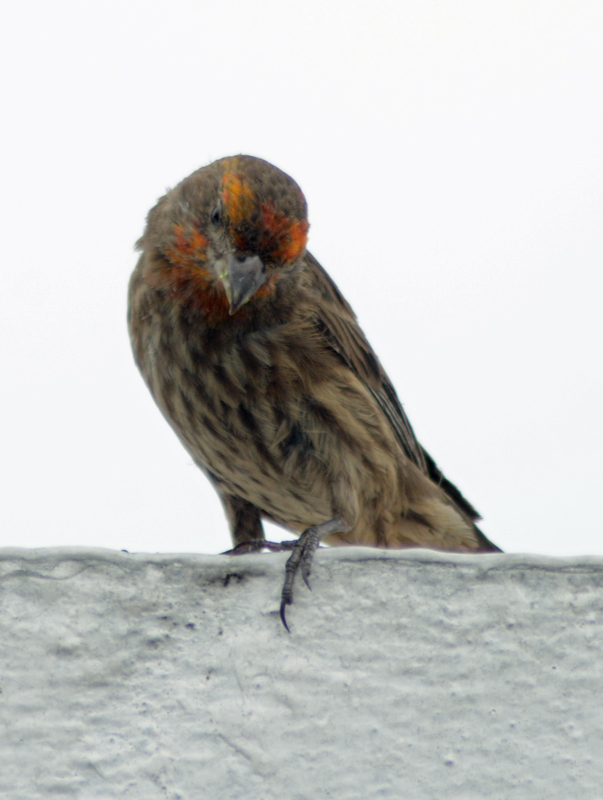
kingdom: Animalia
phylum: Chordata
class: Aves
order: Passeriformes
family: Fringillidae
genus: Haemorhous
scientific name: Haemorhous mexicanus
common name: House finch
